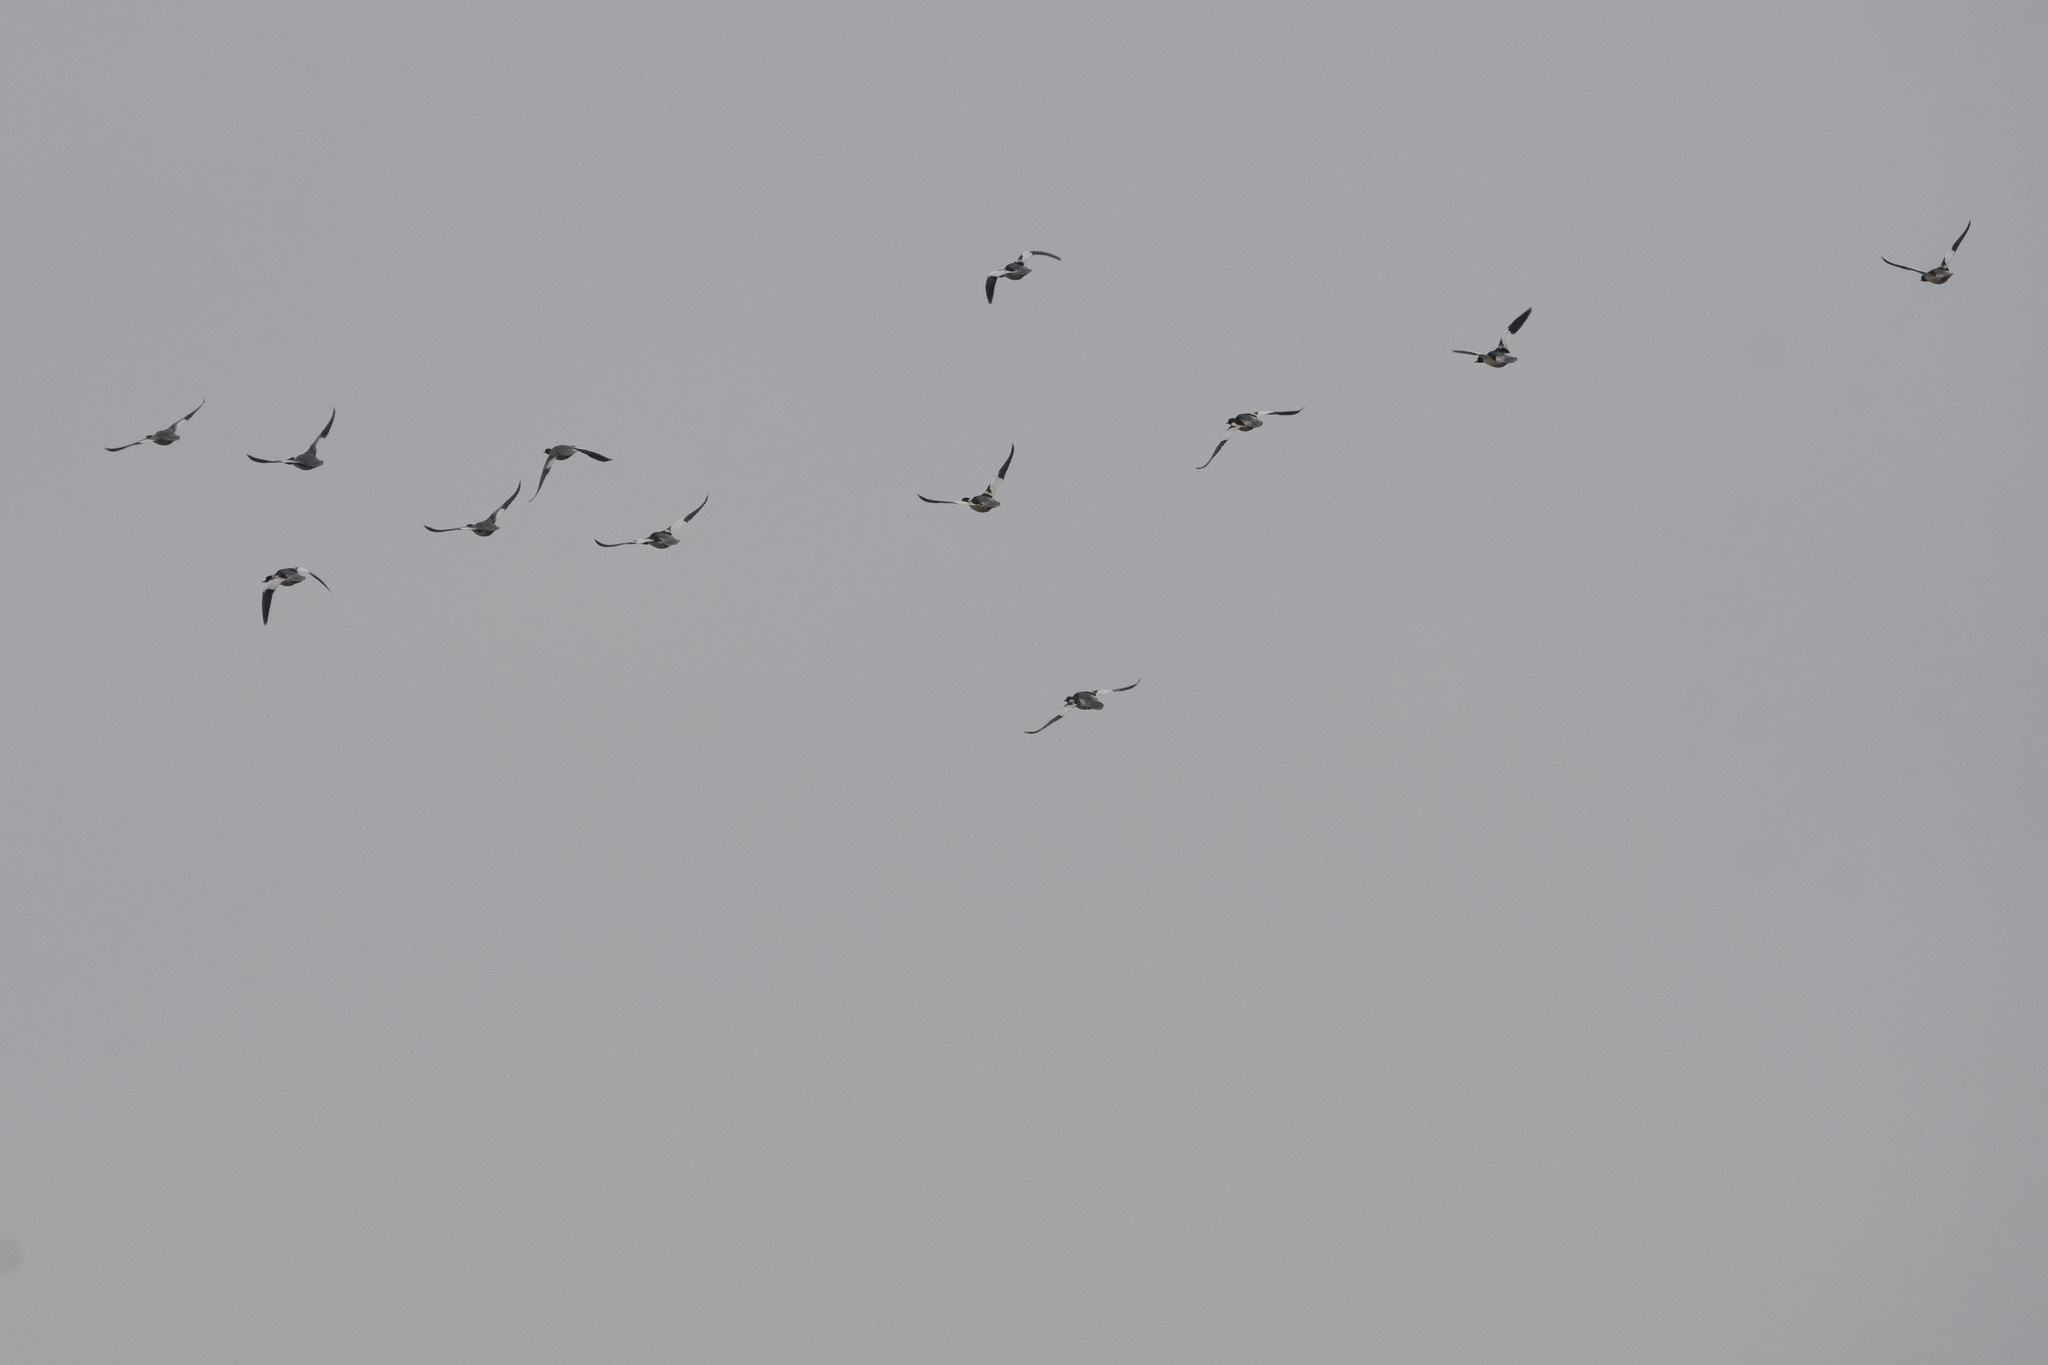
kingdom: Animalia
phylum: Chordata
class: Aves
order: Anseriformes
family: Anatidae
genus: Mergus
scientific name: Mergus merganser
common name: Common merganser
